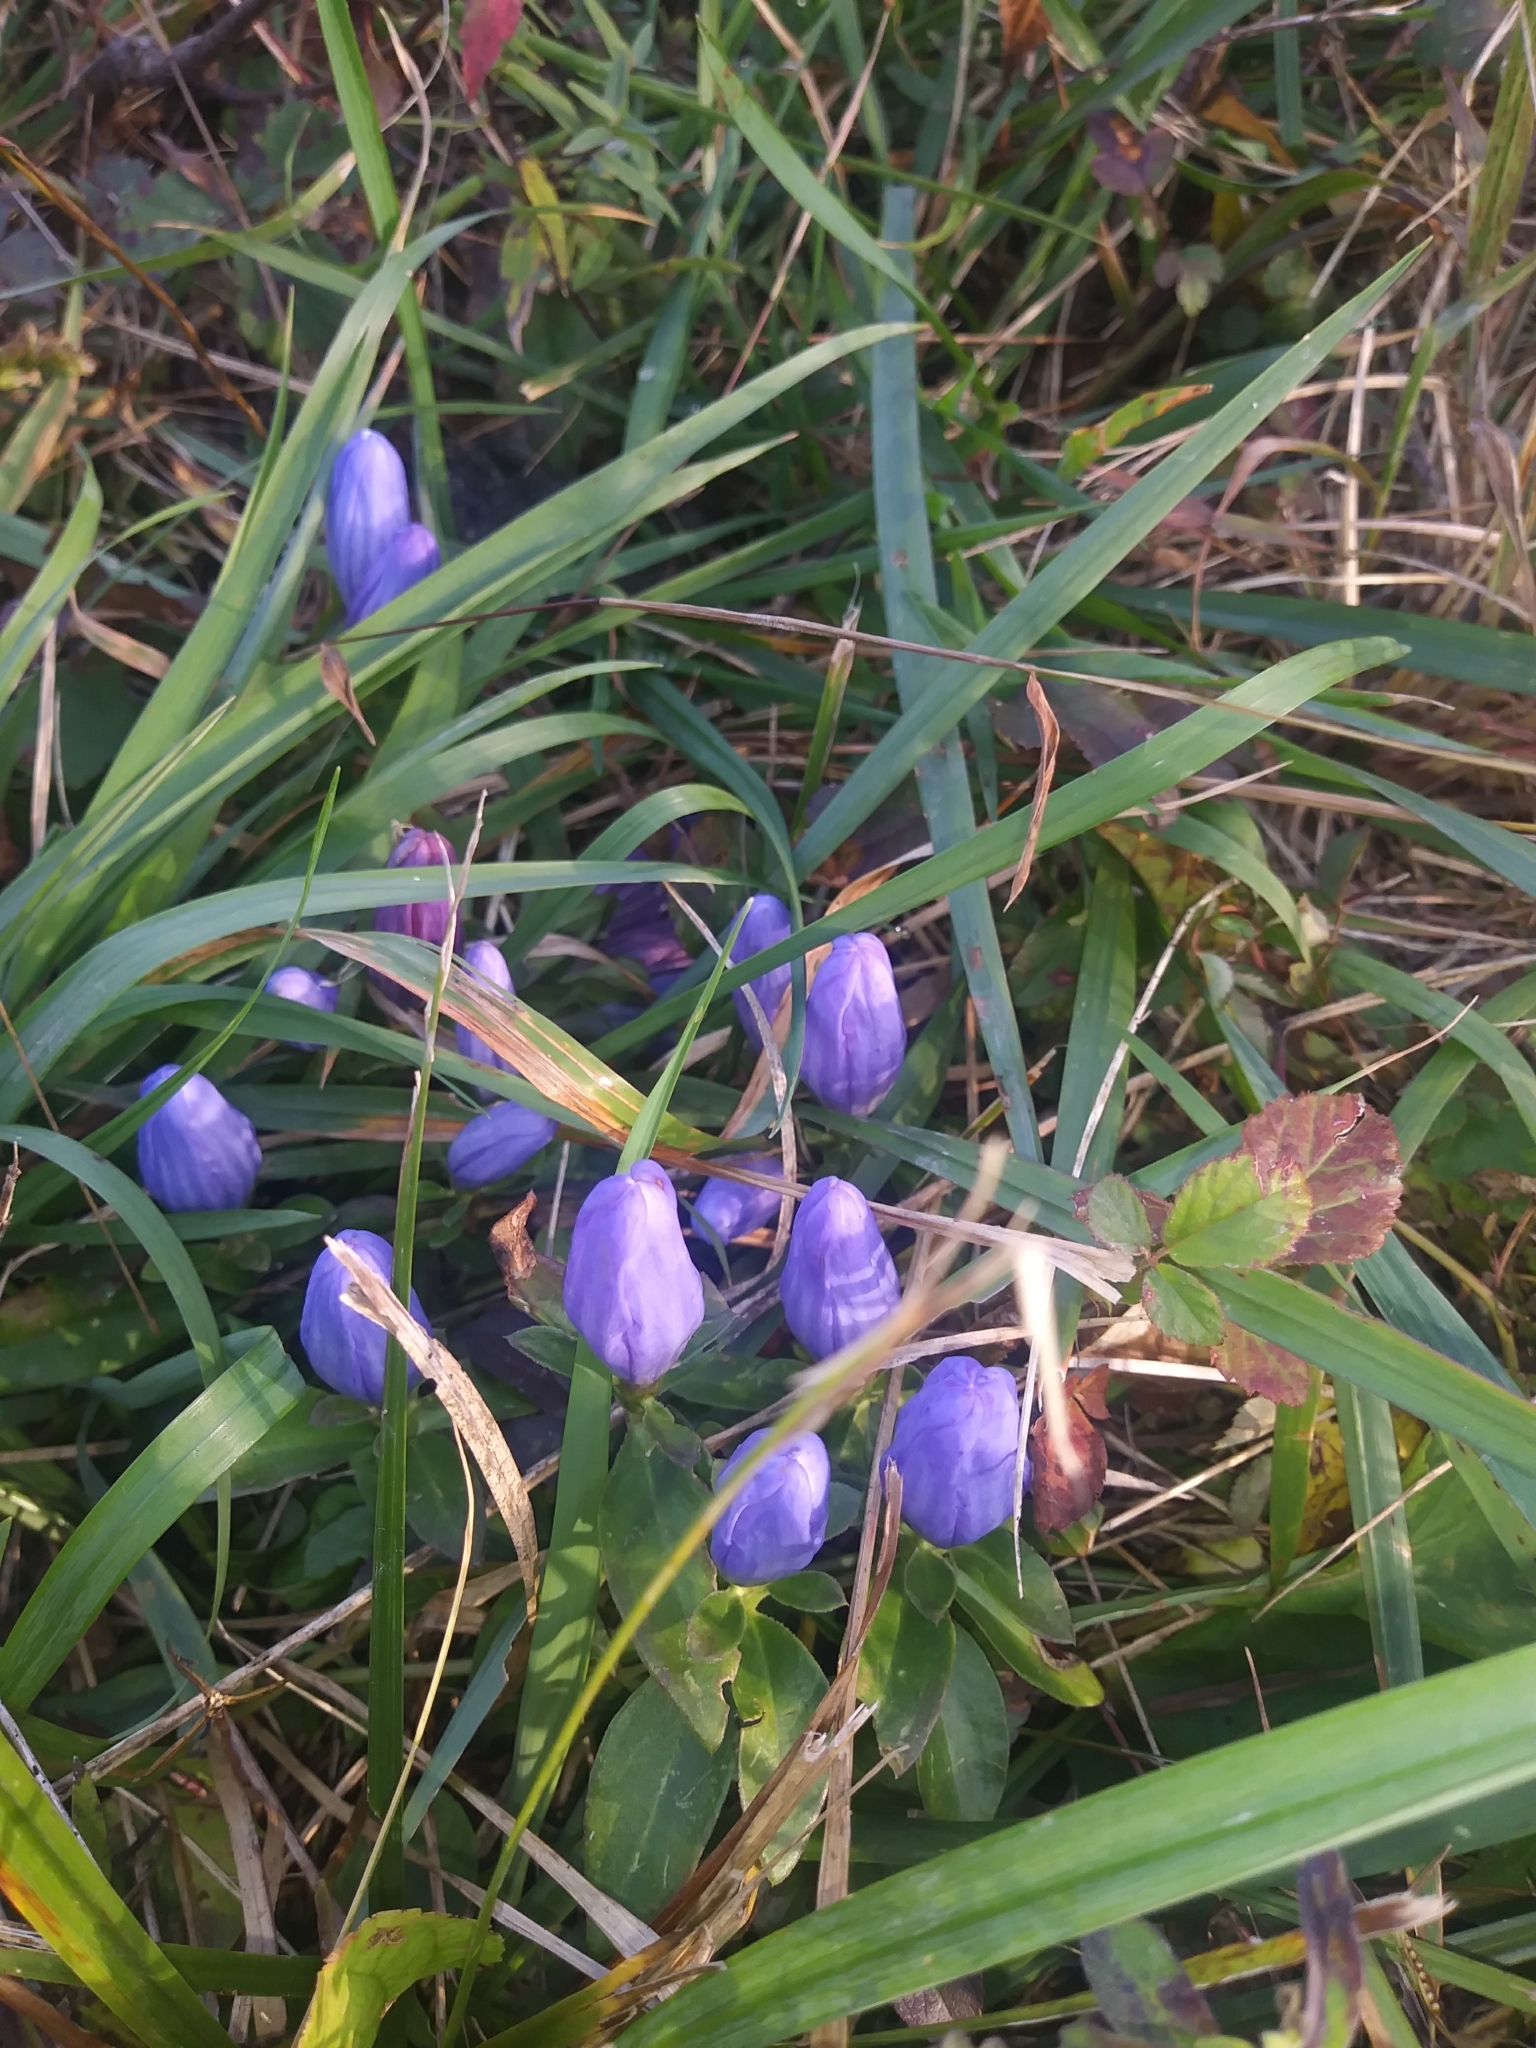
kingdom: Plantae
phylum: Tracheophyta
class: Magnoliopsida
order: Gentianales
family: Gentianaceae
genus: Gentiana
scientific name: Gentiana saponaria
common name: Soapwort gentian
